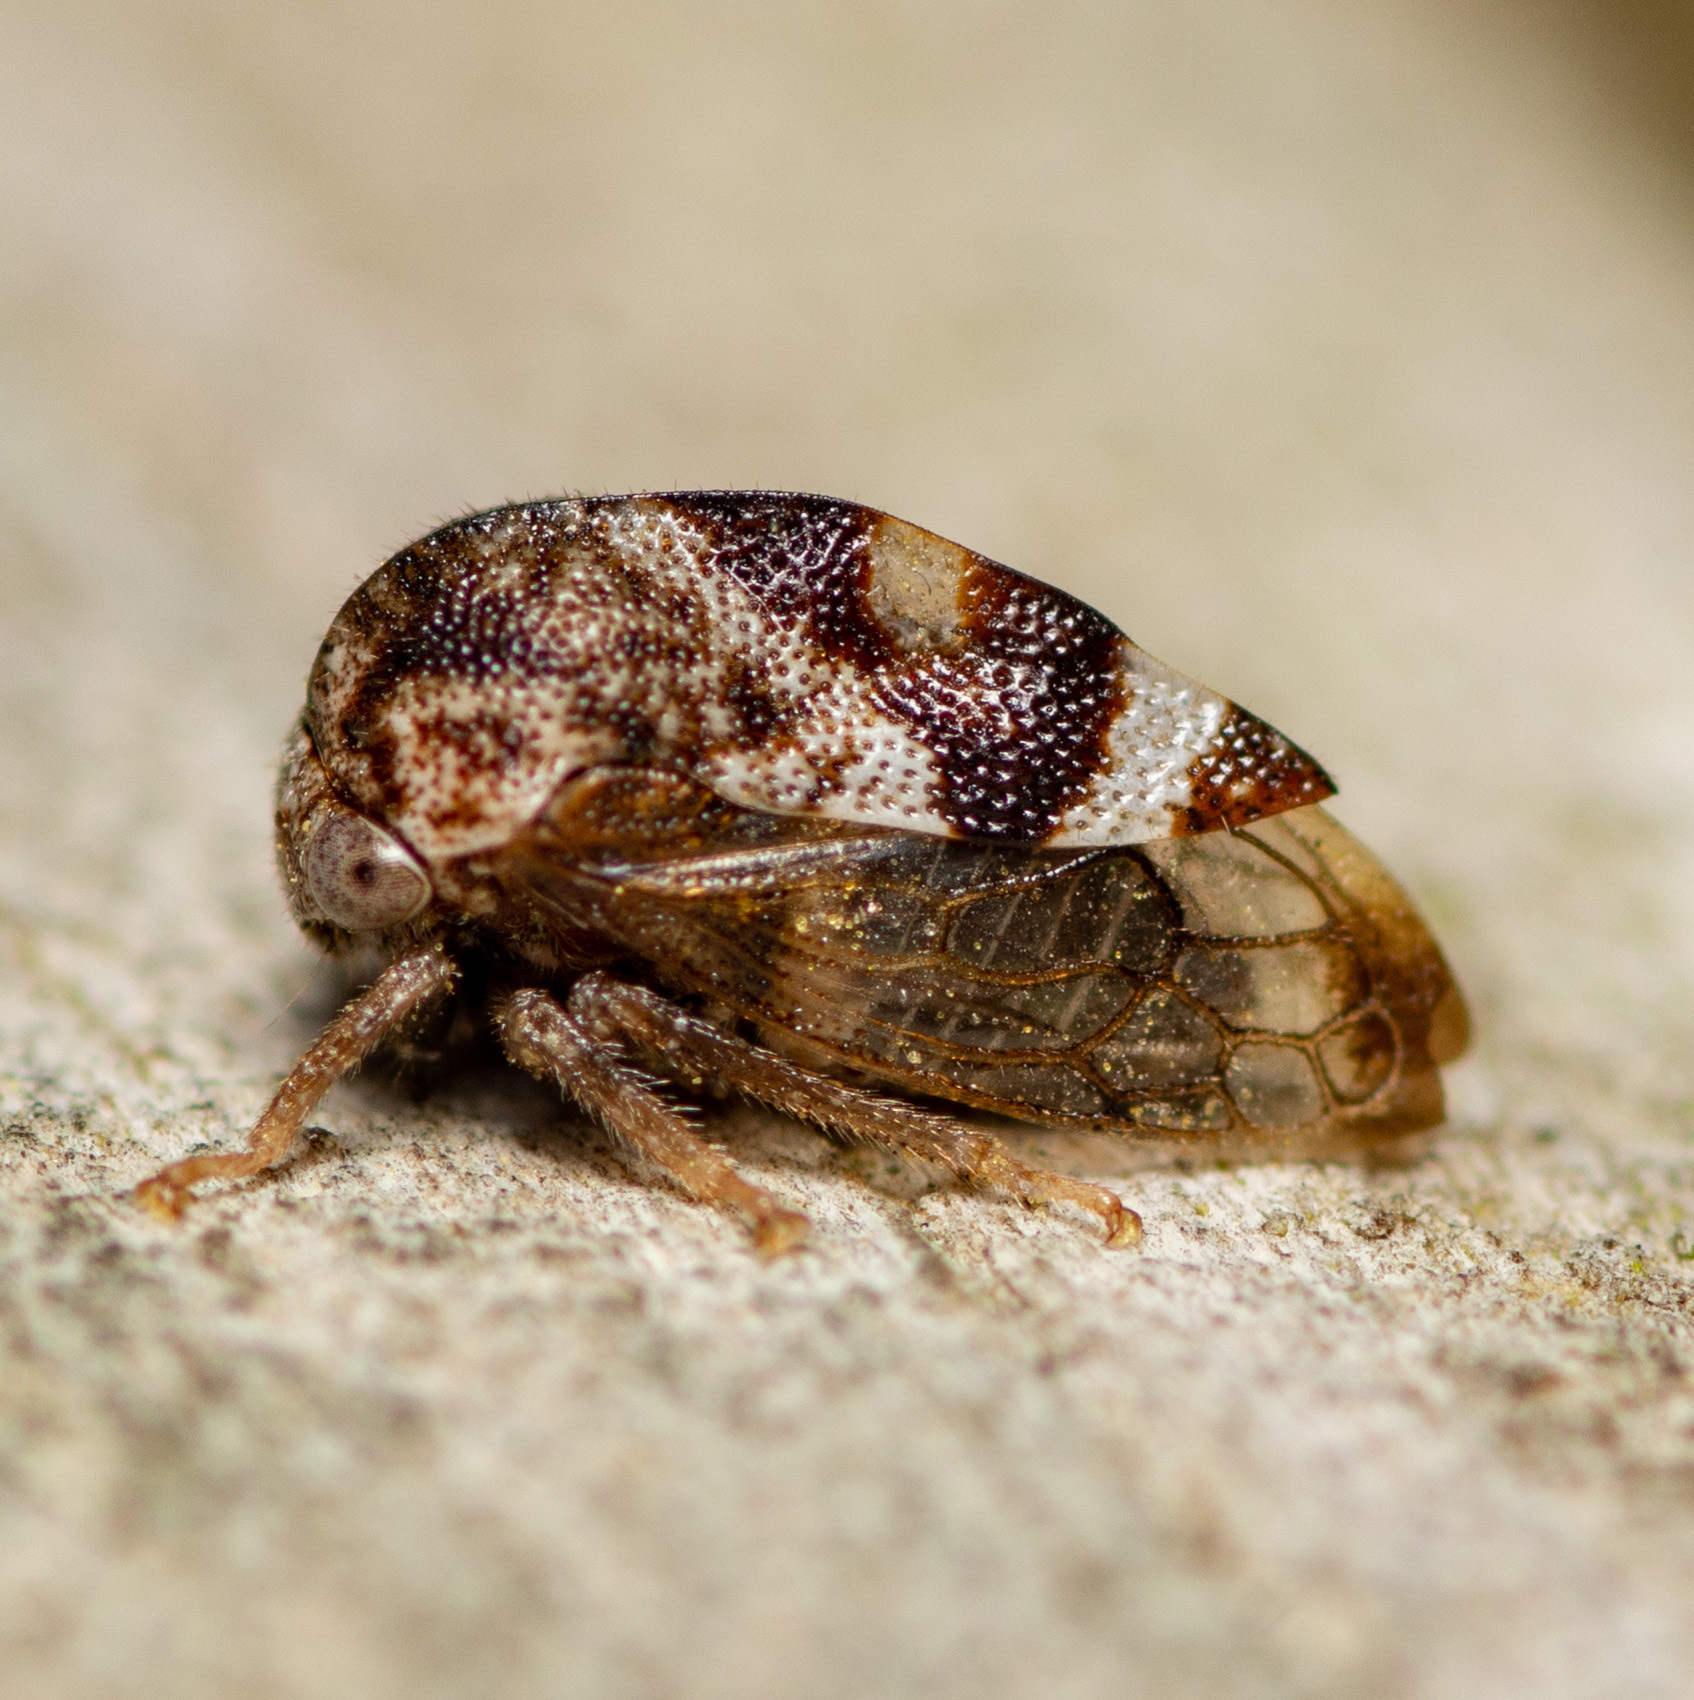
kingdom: Animalia
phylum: Arthropoda
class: Insecta
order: Hemiptera
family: Membracidae
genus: Cyrtolobus
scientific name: Cyrtolobus parvulus
